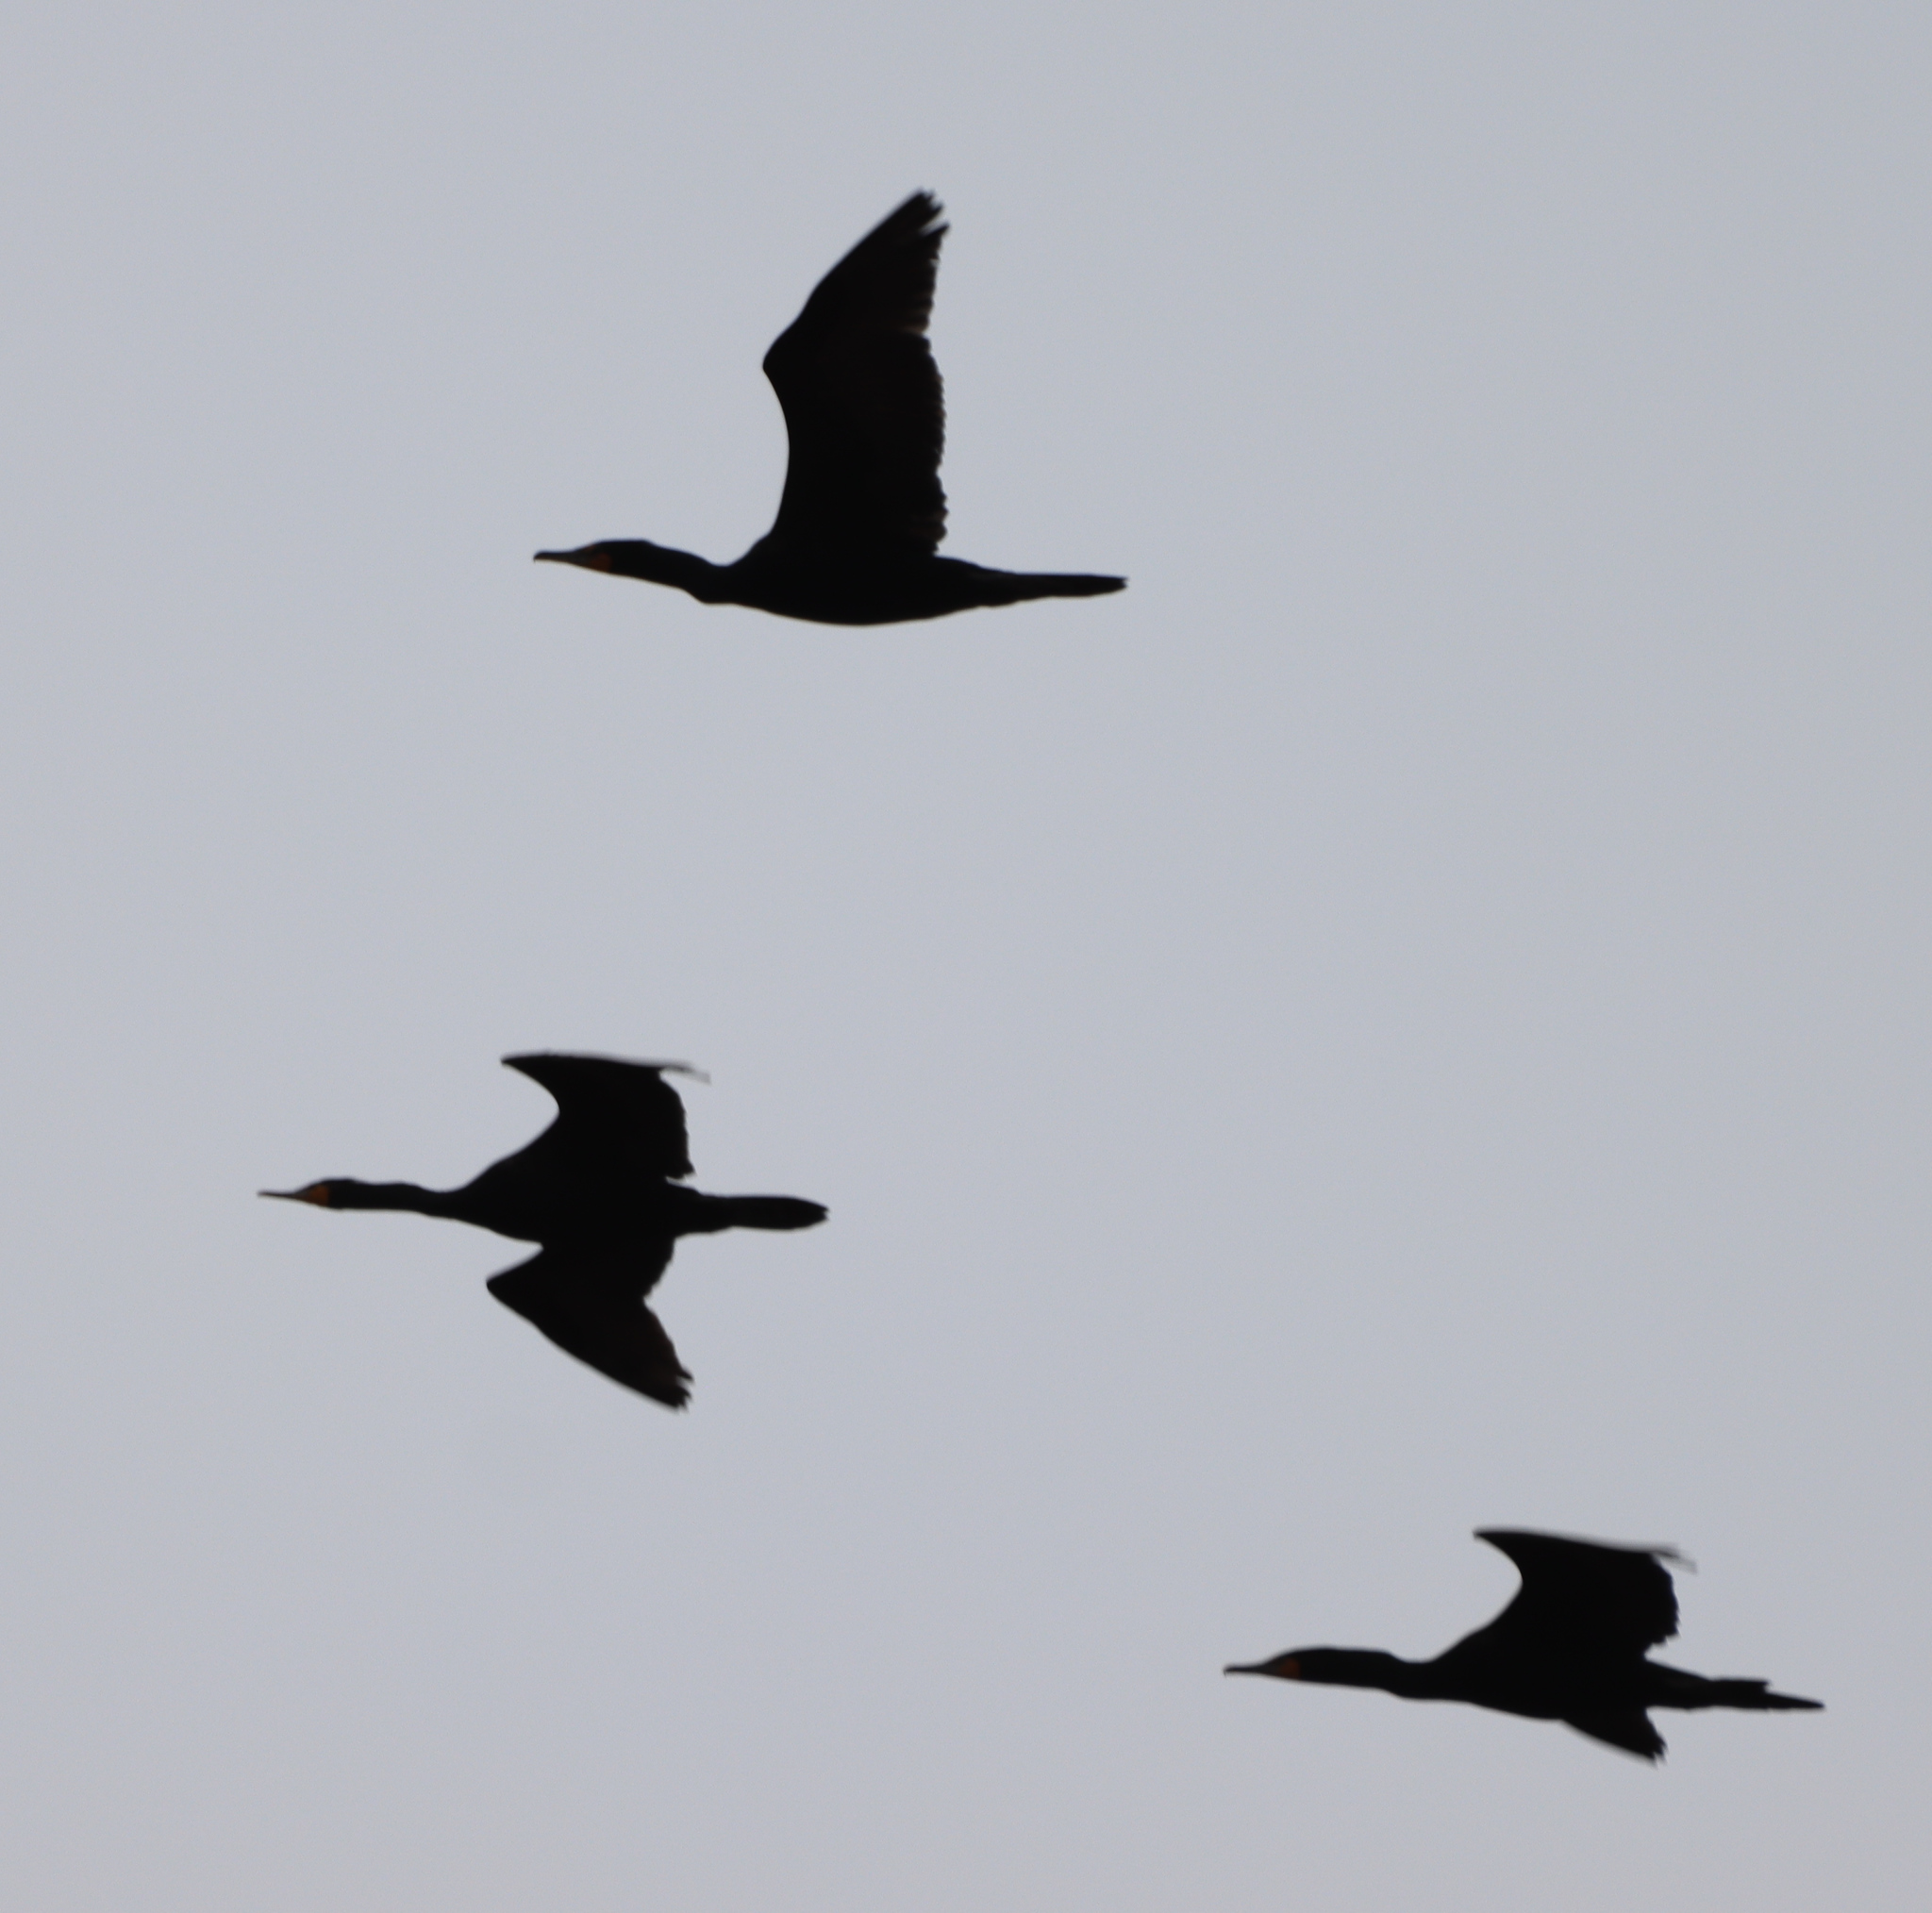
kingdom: Animalia
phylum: Chordata
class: Aves
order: Suliformes
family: Phalacrocoracidae
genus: Phalacrocorax
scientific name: Phalacrocorax auritus
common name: Double-crested cormorant
